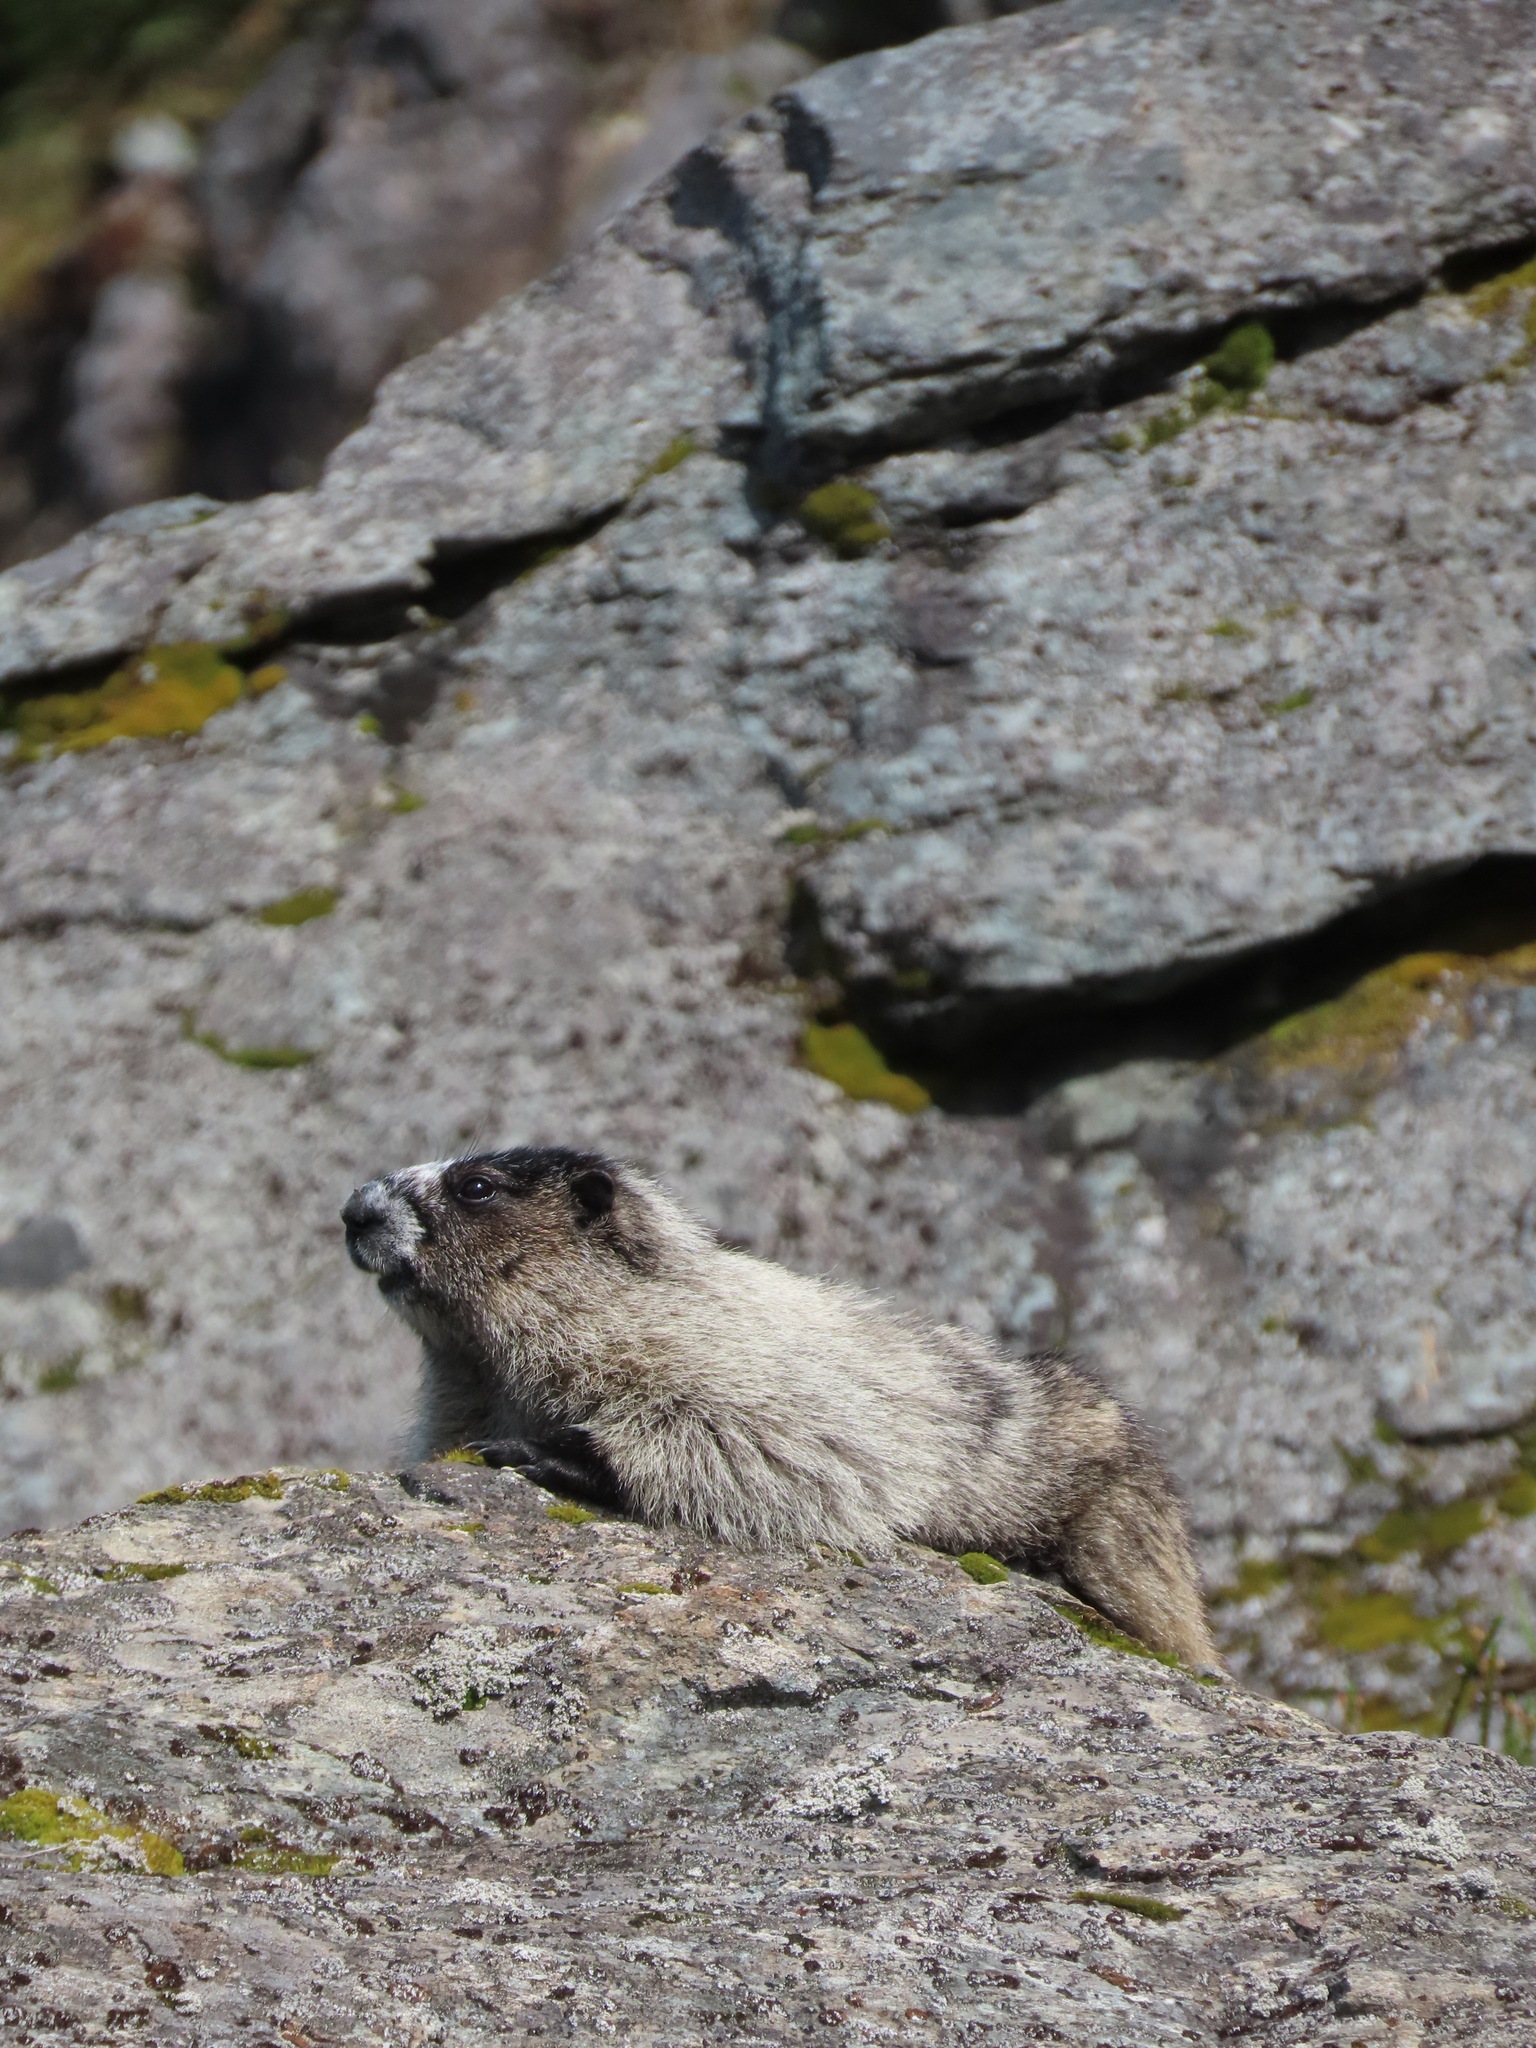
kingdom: Animalia
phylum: Chordata
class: Mammalia
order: Rodentia
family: Sciuridae
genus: Marmota
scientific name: Marmota caligata
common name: Hoary marmot
